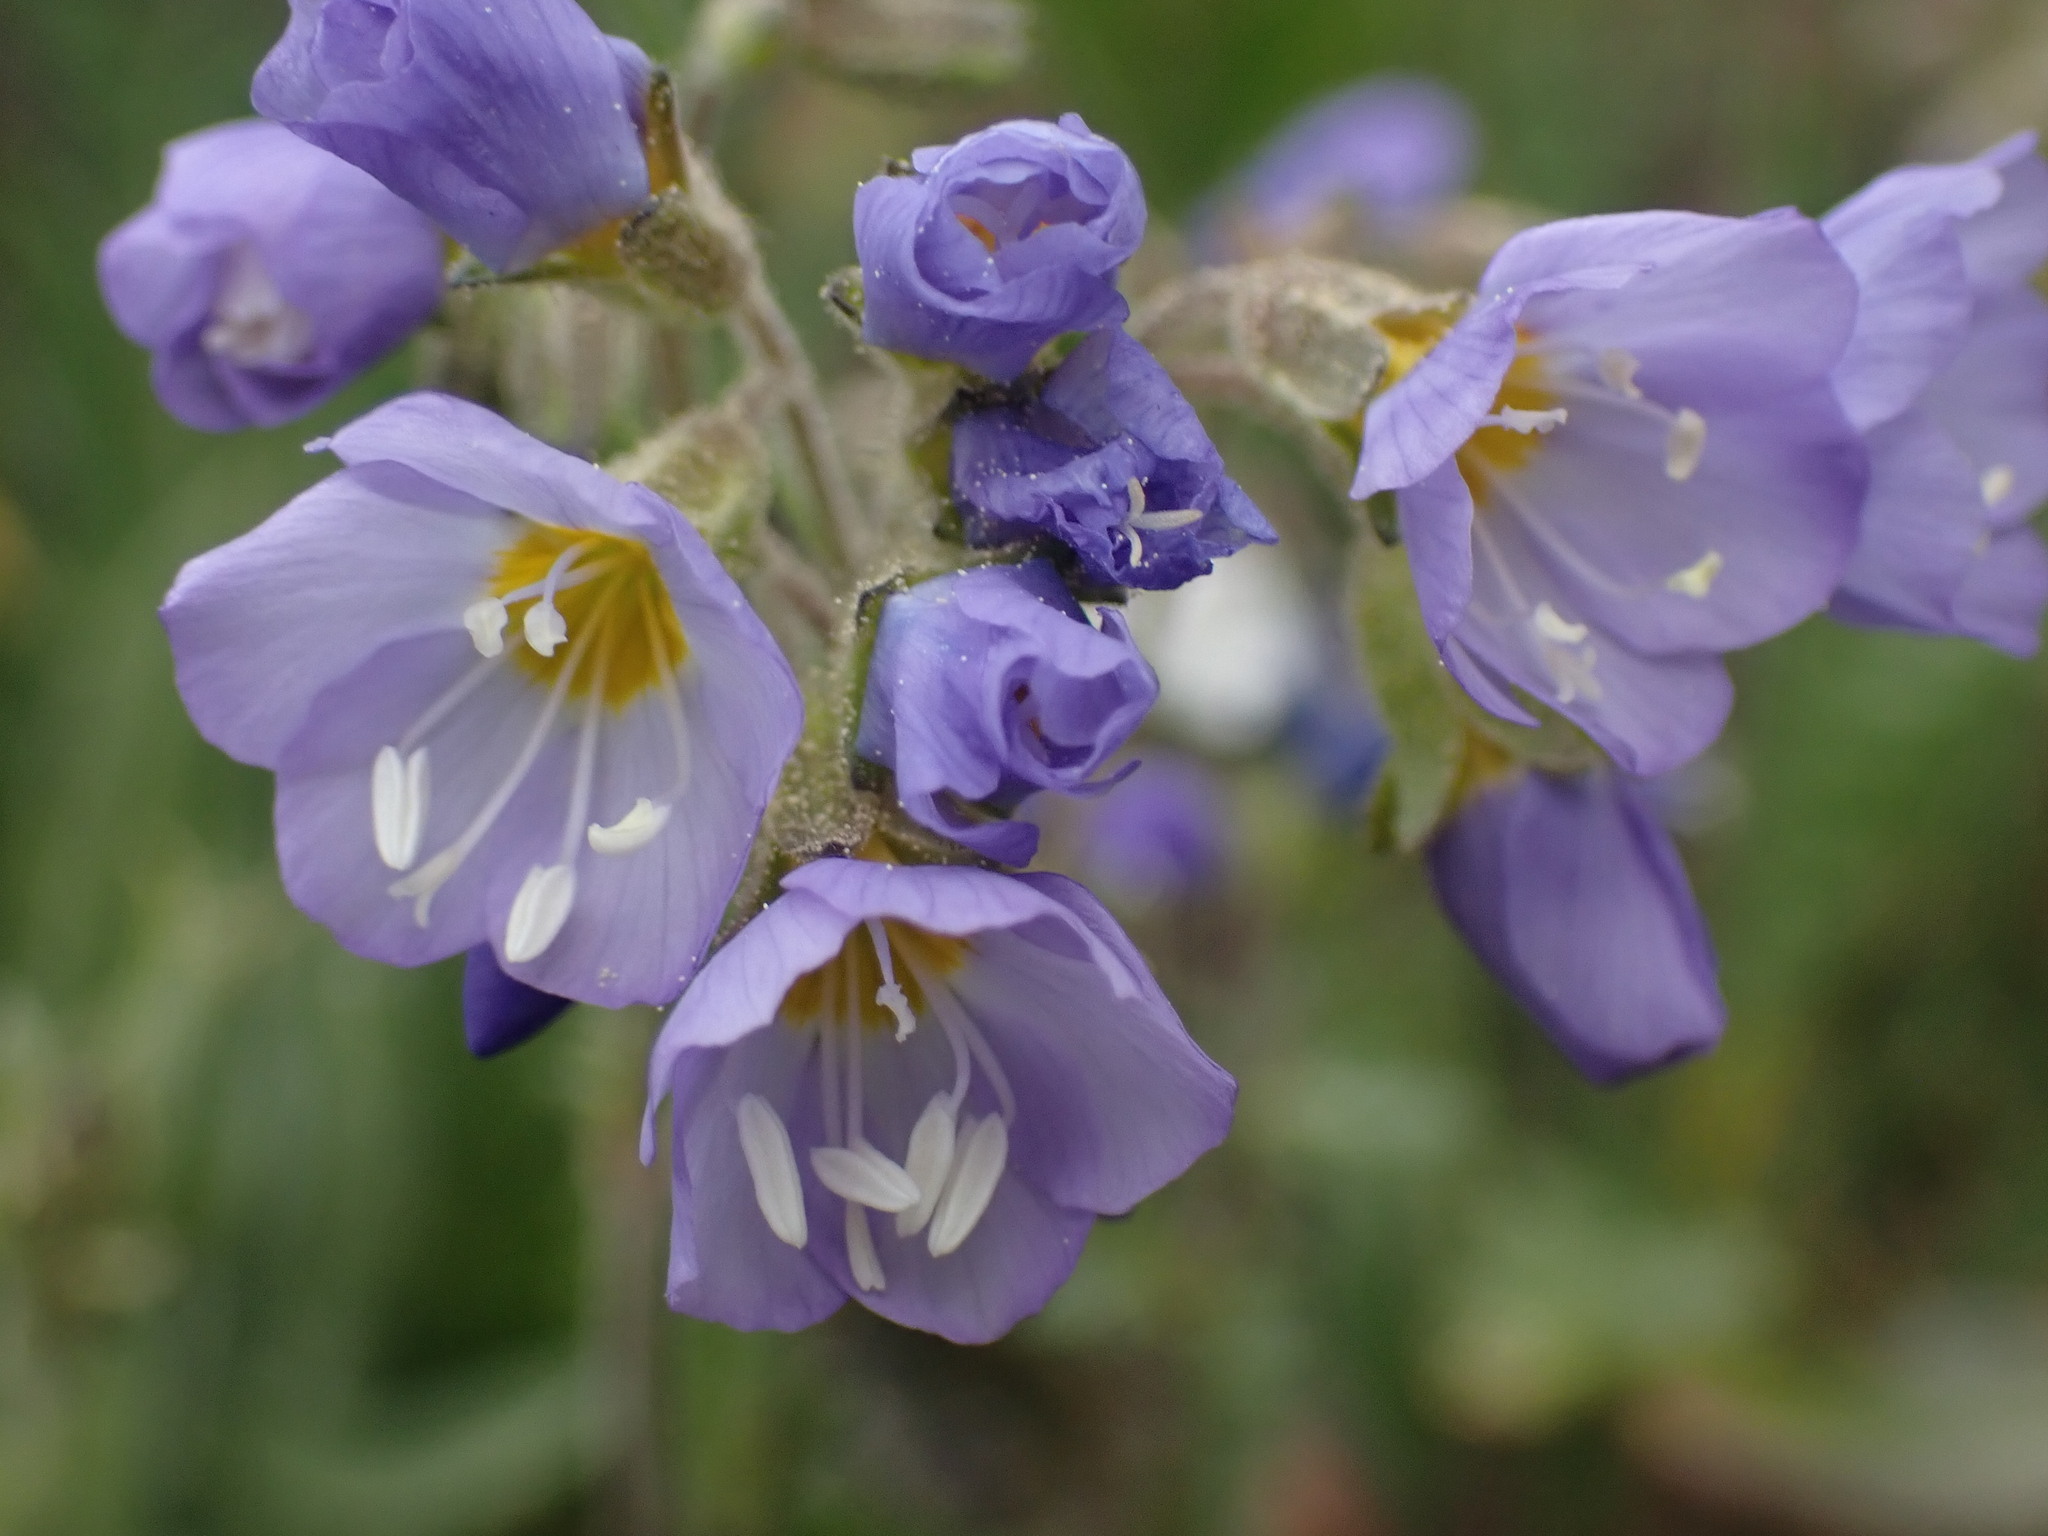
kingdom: Plantae
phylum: Tracheophyta
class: Magnoliopsida
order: Ericales
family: Polemoniaceae
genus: Polemonium
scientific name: Polemonium pulcherrimum
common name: Short jacob's-ladder
